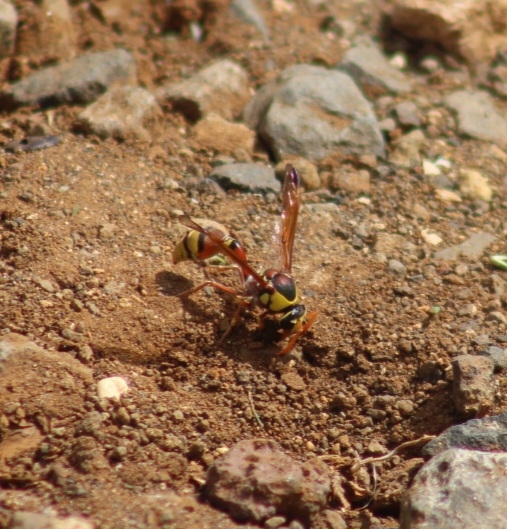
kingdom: Animalia
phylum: Arthropoda
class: Insecta
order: Hymenoptera
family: Eumenidae
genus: Delta
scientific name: Delta esuriens
